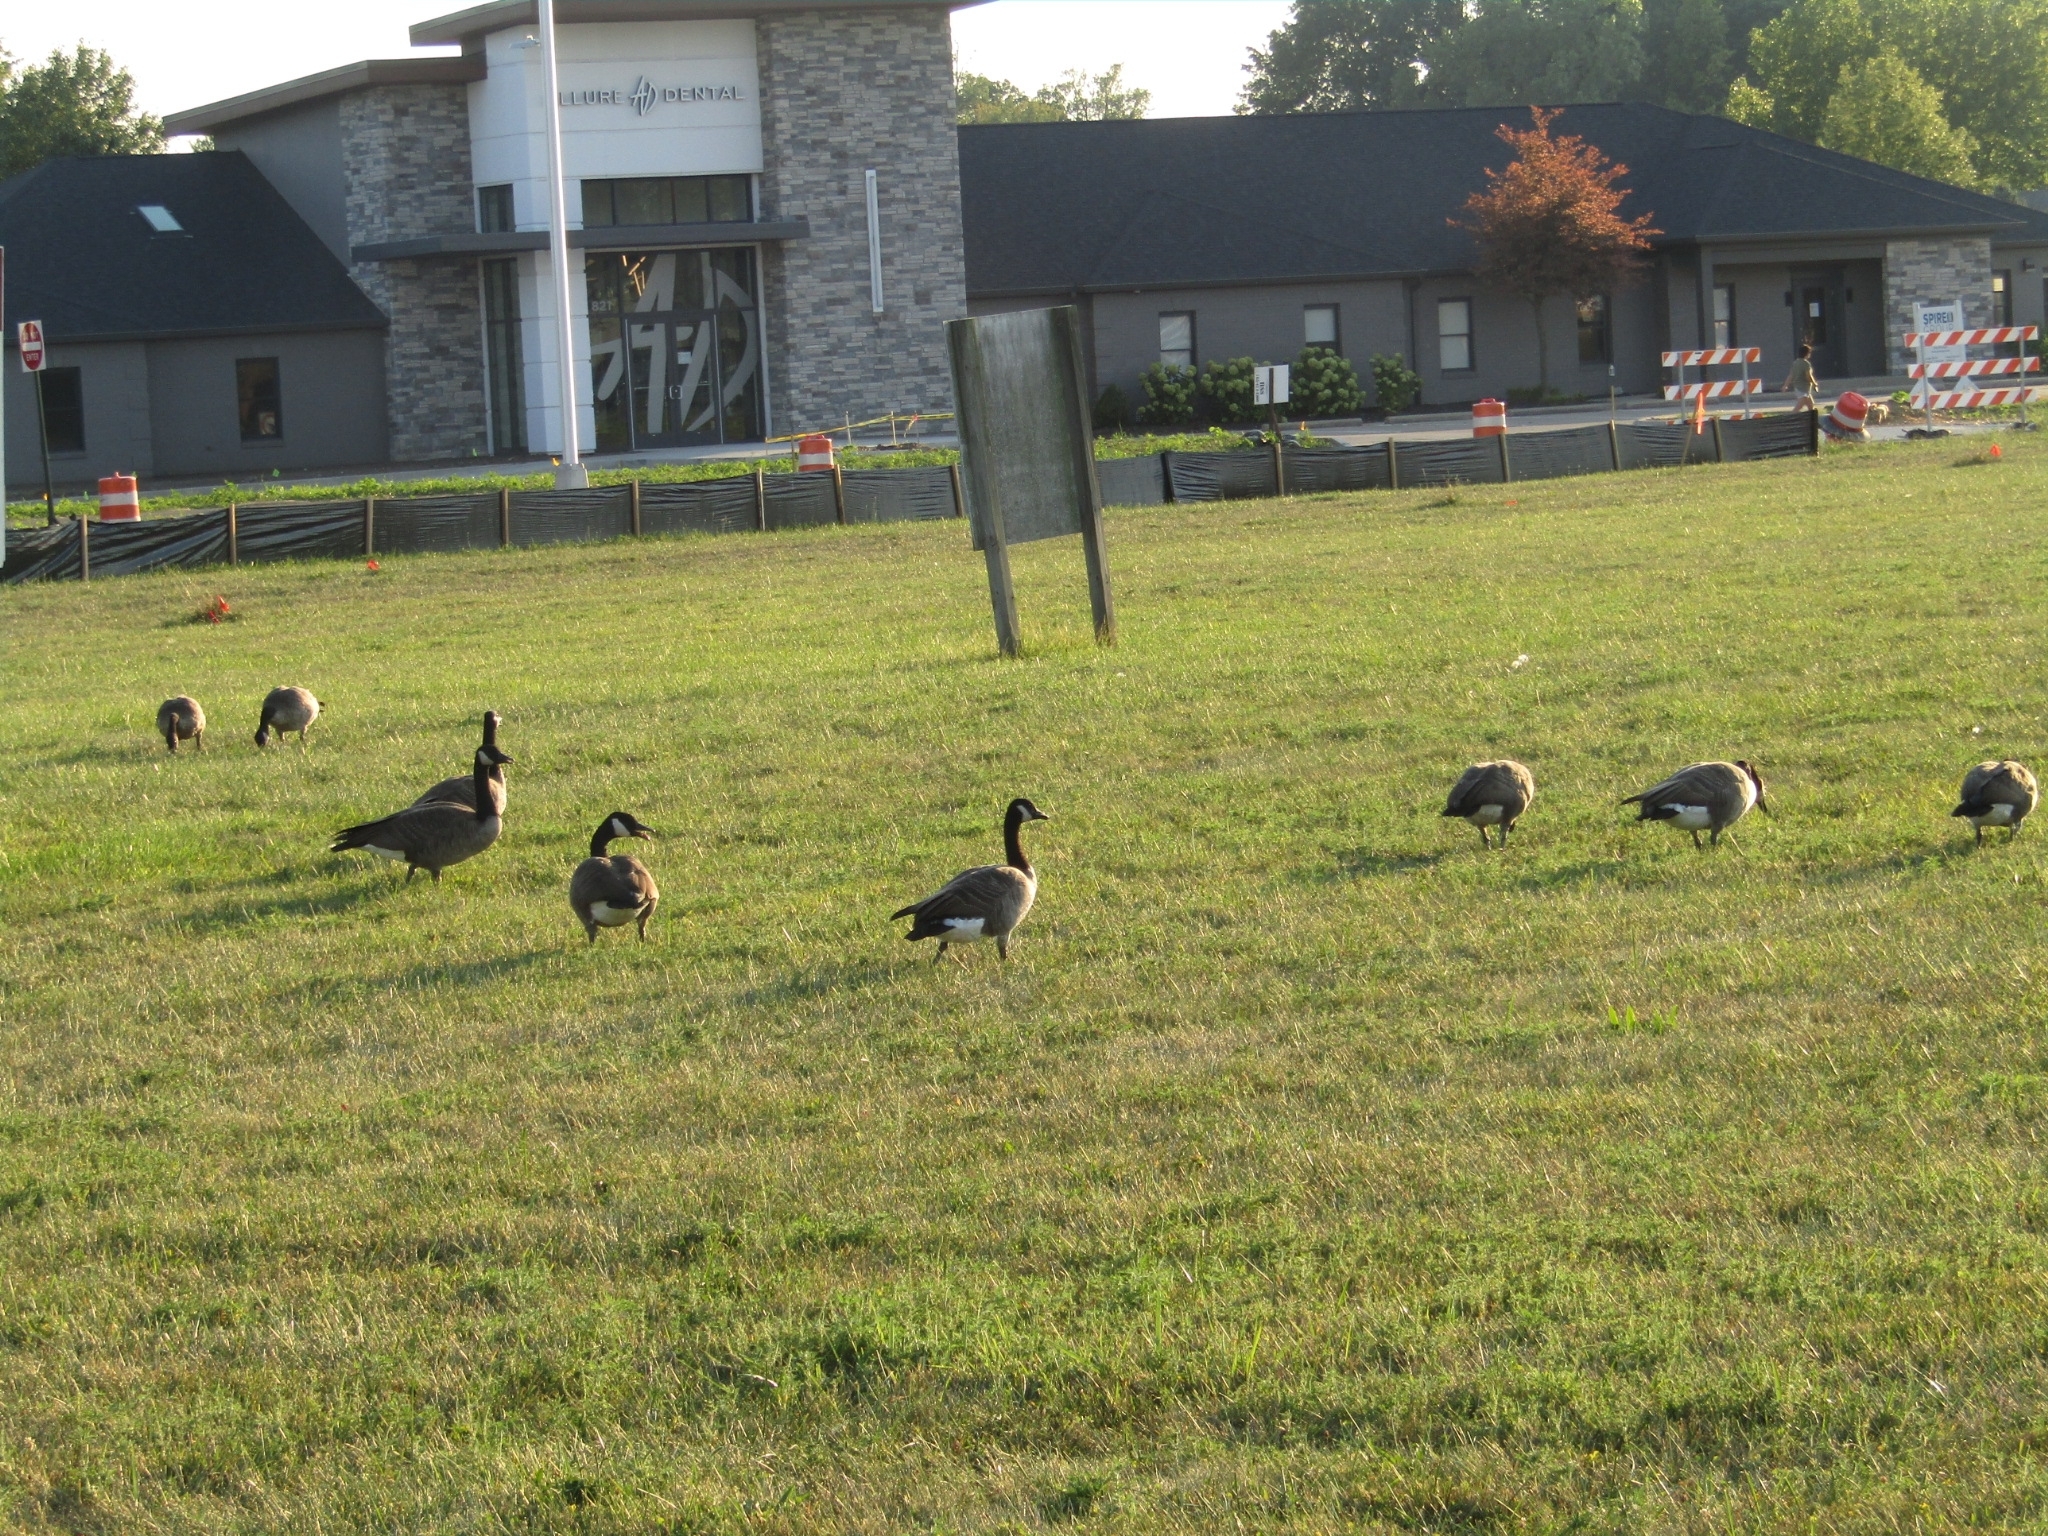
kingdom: Animalia
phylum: Chordata
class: Aves
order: Anseriformes
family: Anatidae
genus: Branta
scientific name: Branta canadensis
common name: Canada goose
